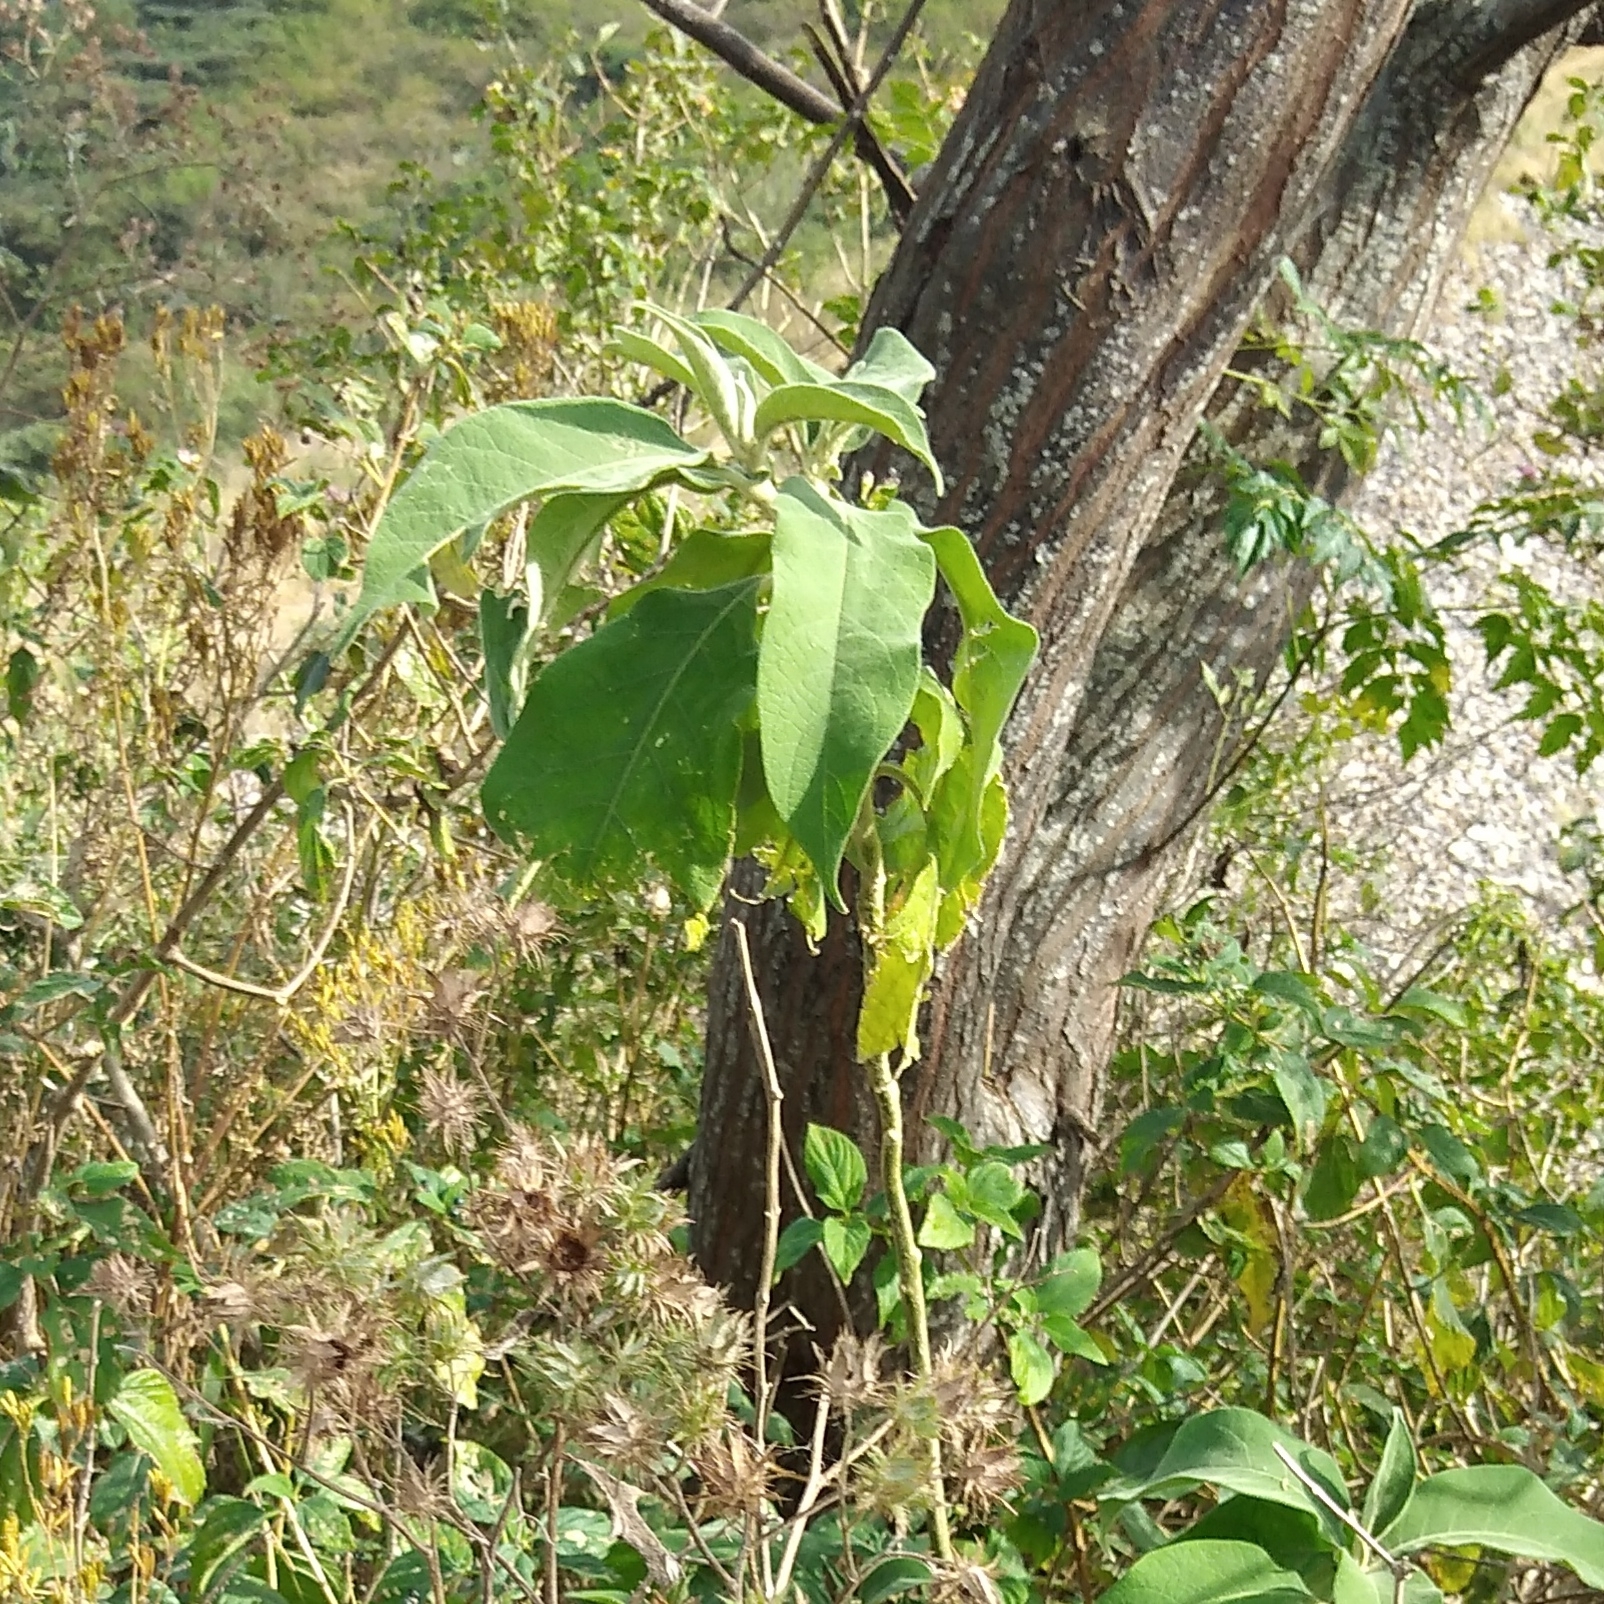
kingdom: Plantae
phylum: Tracheophyta
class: Magnoliopsida
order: Solanales
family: Solanaceae
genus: Solanum
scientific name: Solanum mauritianum
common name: Earleaf nightshade
